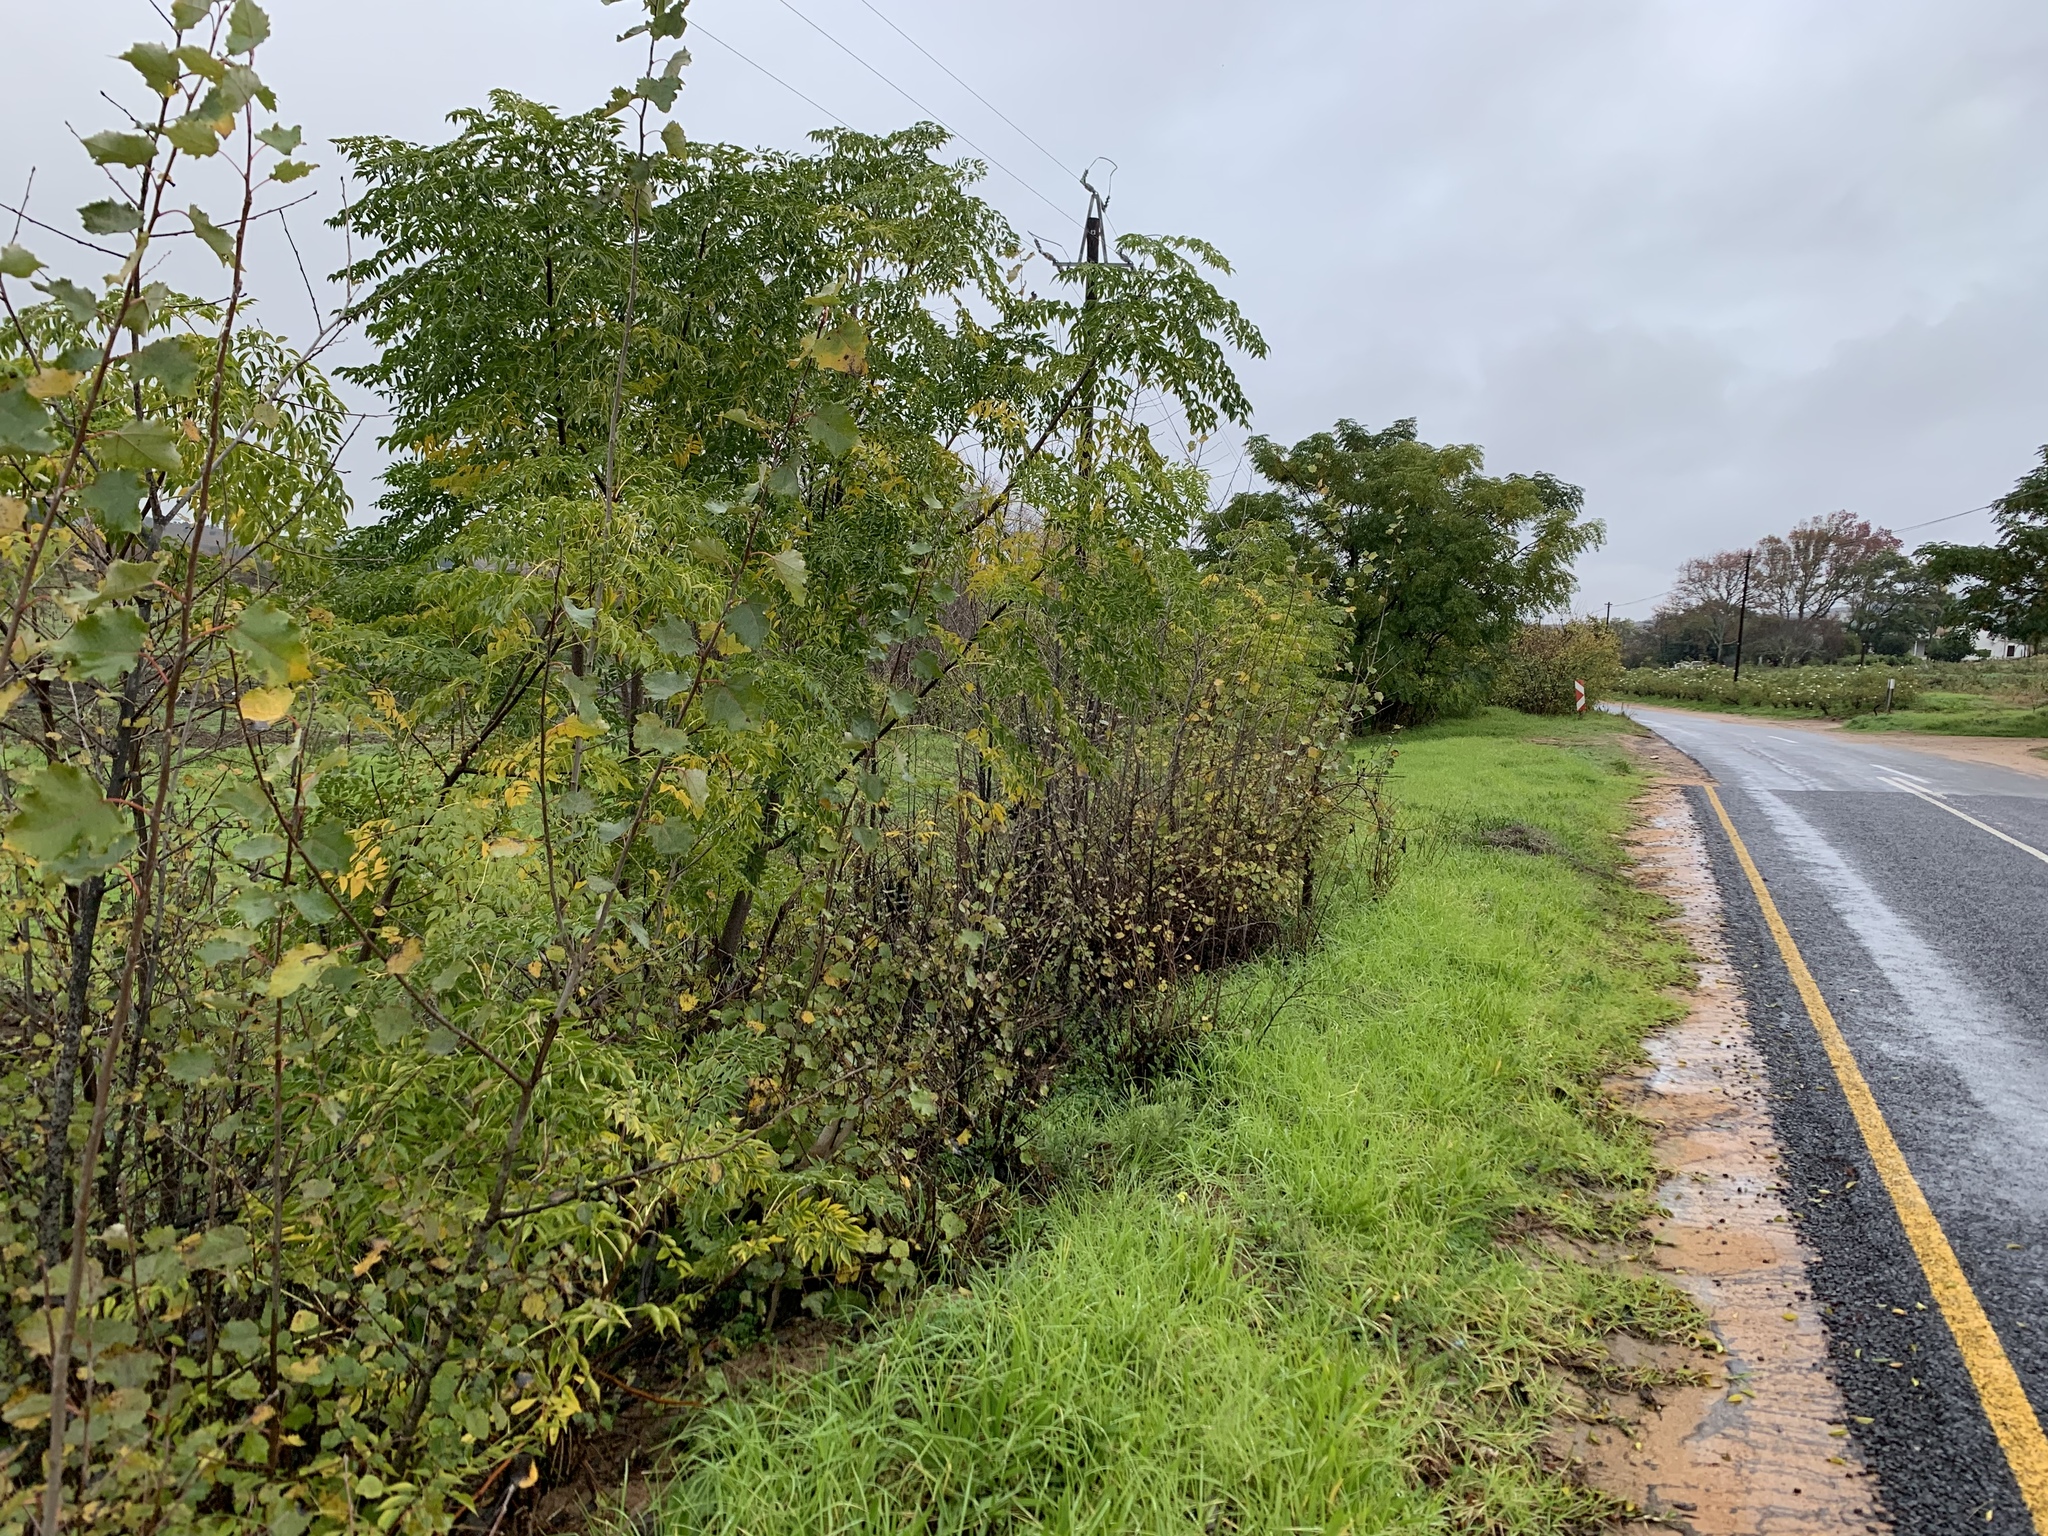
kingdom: Plantae
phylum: Tracheophyta
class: Magnoliopsida
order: Sapindales
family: Meliaceae
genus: Melia
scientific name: Melia azedarach
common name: Chinaberrytree
